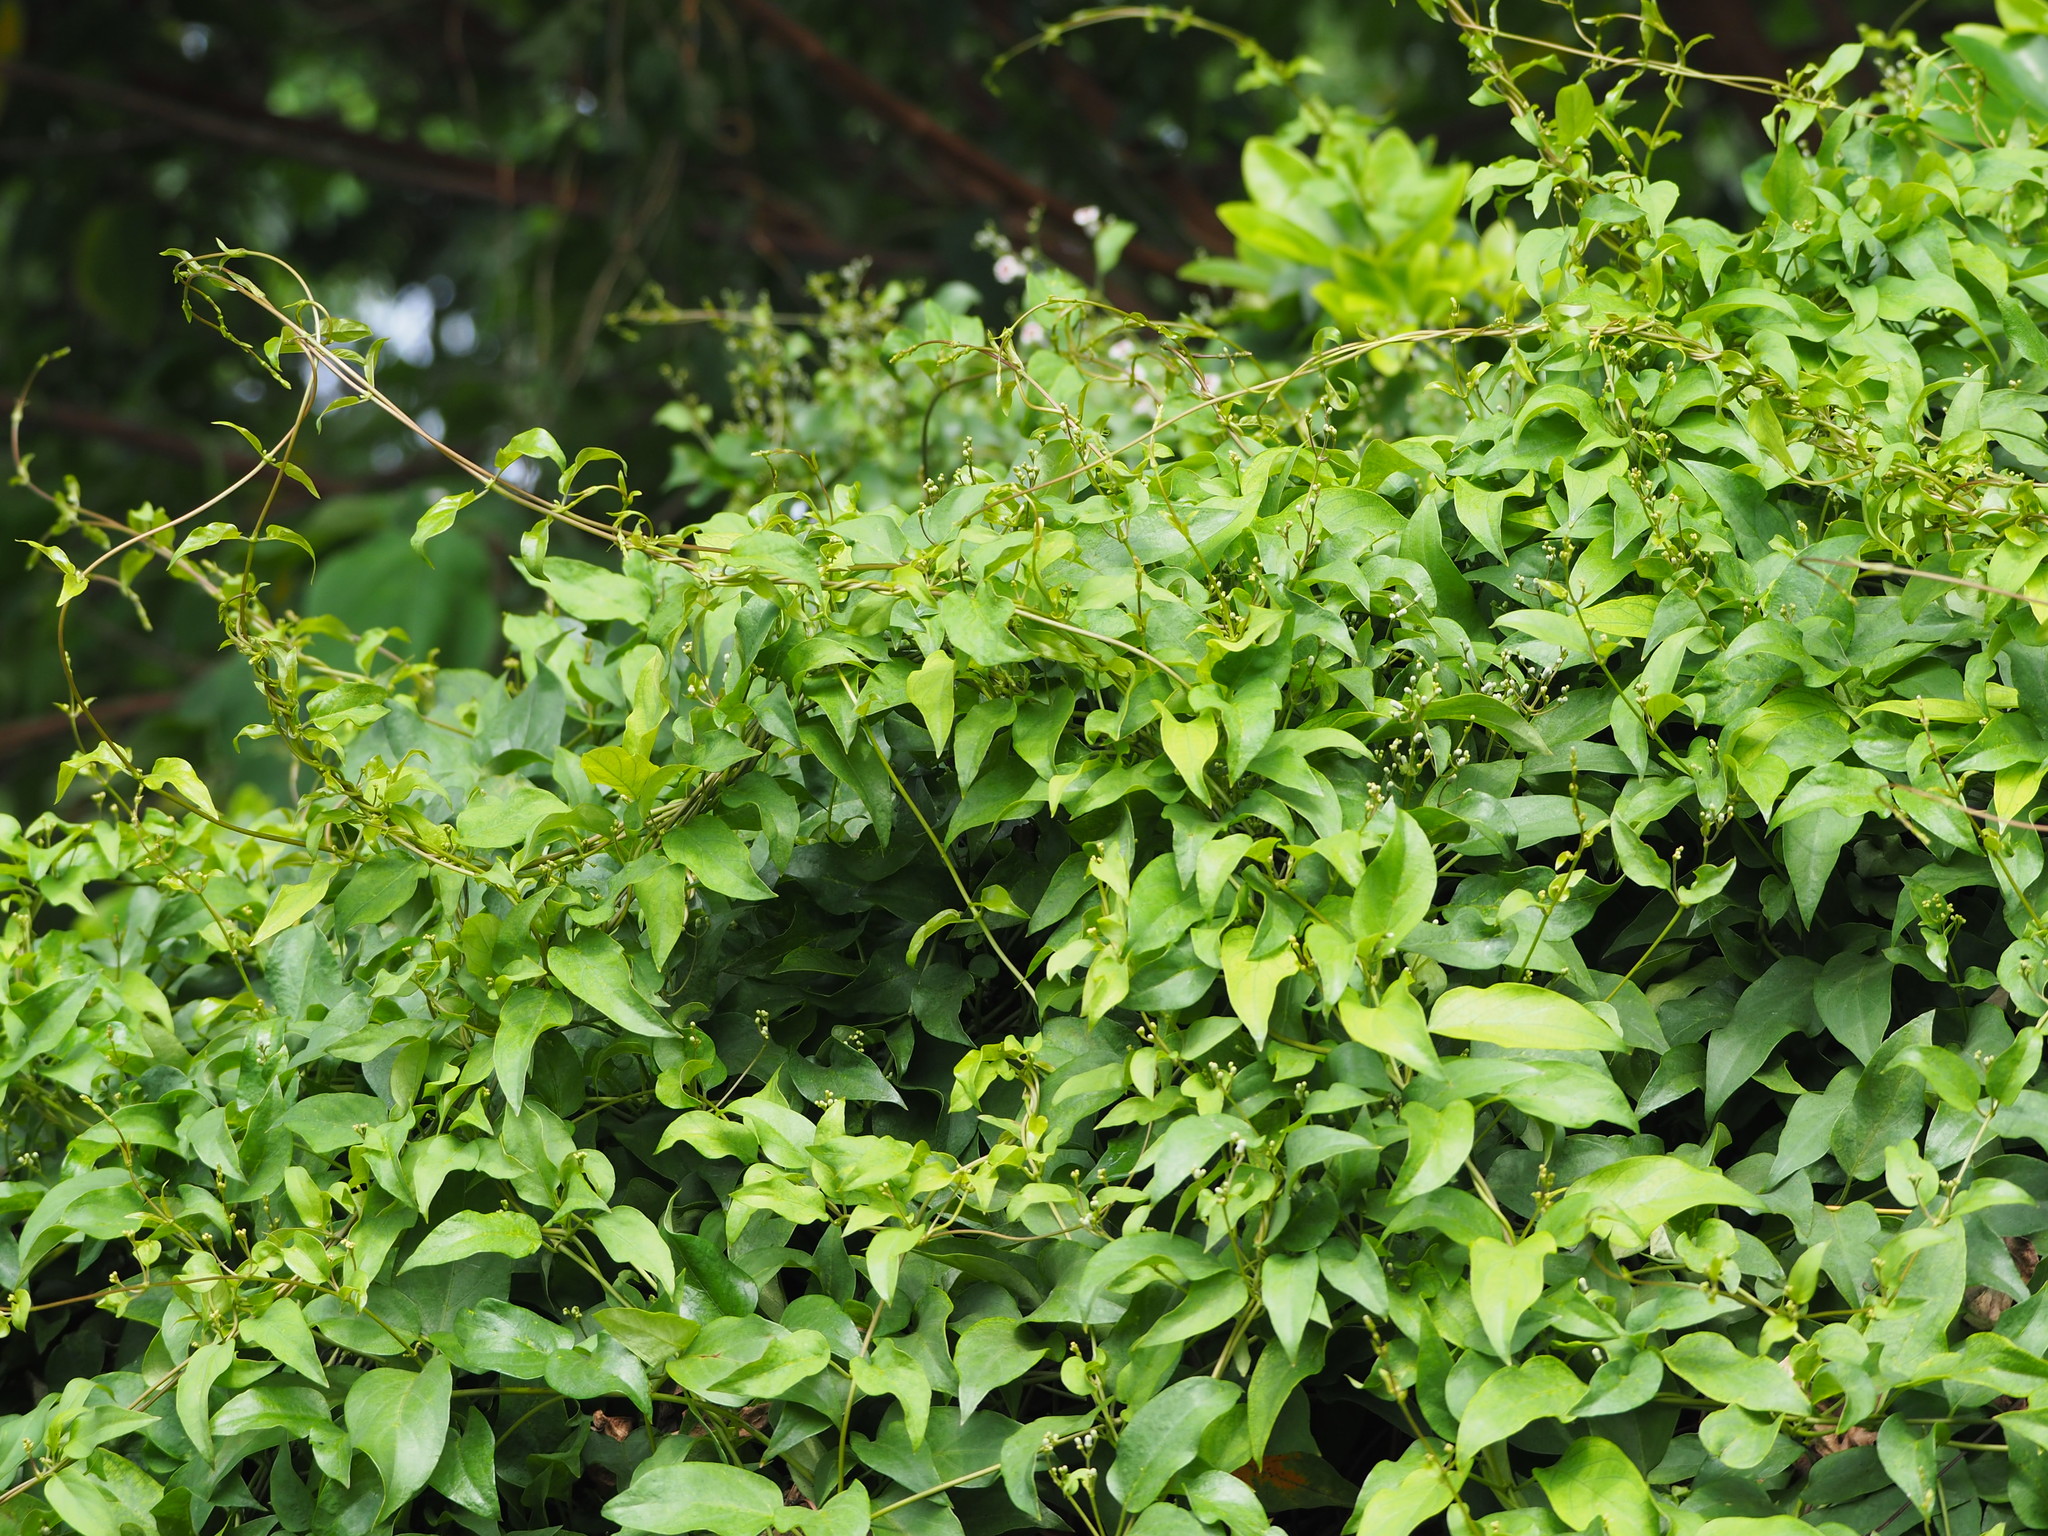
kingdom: Plantae
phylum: Tracheophyta
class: Magnoliopsida
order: Gentianales
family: Rubiaceae
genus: Paederia
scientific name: Paederia foetida
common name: Stinkvine
